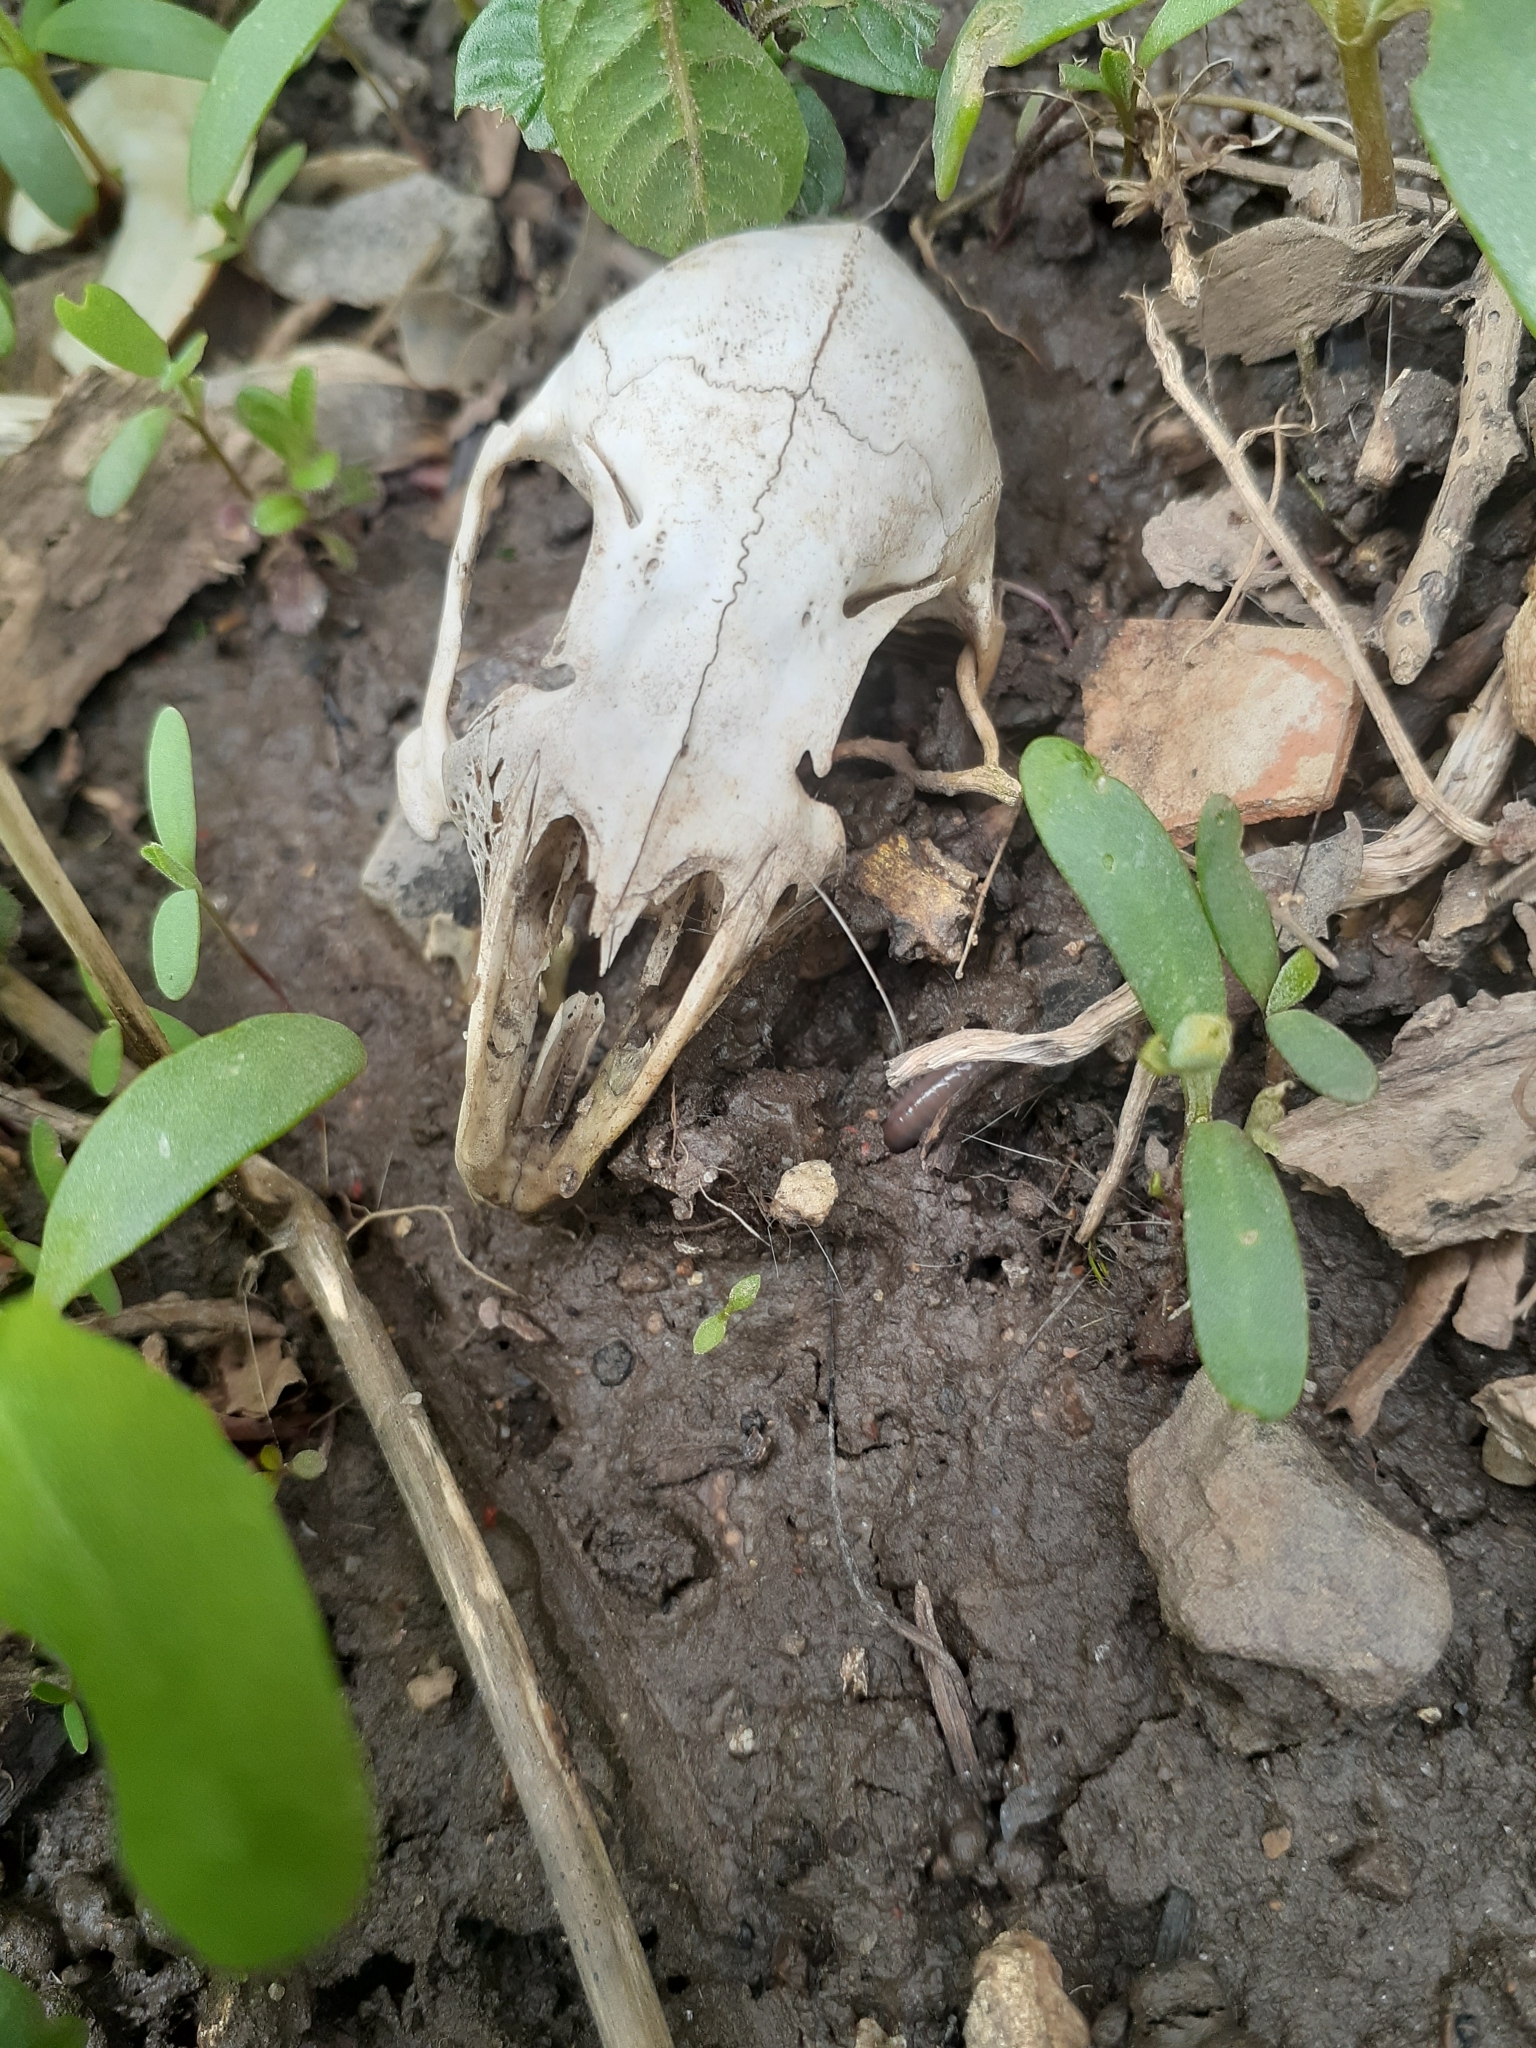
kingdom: Animalia
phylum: Chordata
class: Mammalia
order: Lagomorpha
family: Leporidae
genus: Sylvilagus
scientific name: Sylvilagus floridanus
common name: Eastern cottontail
